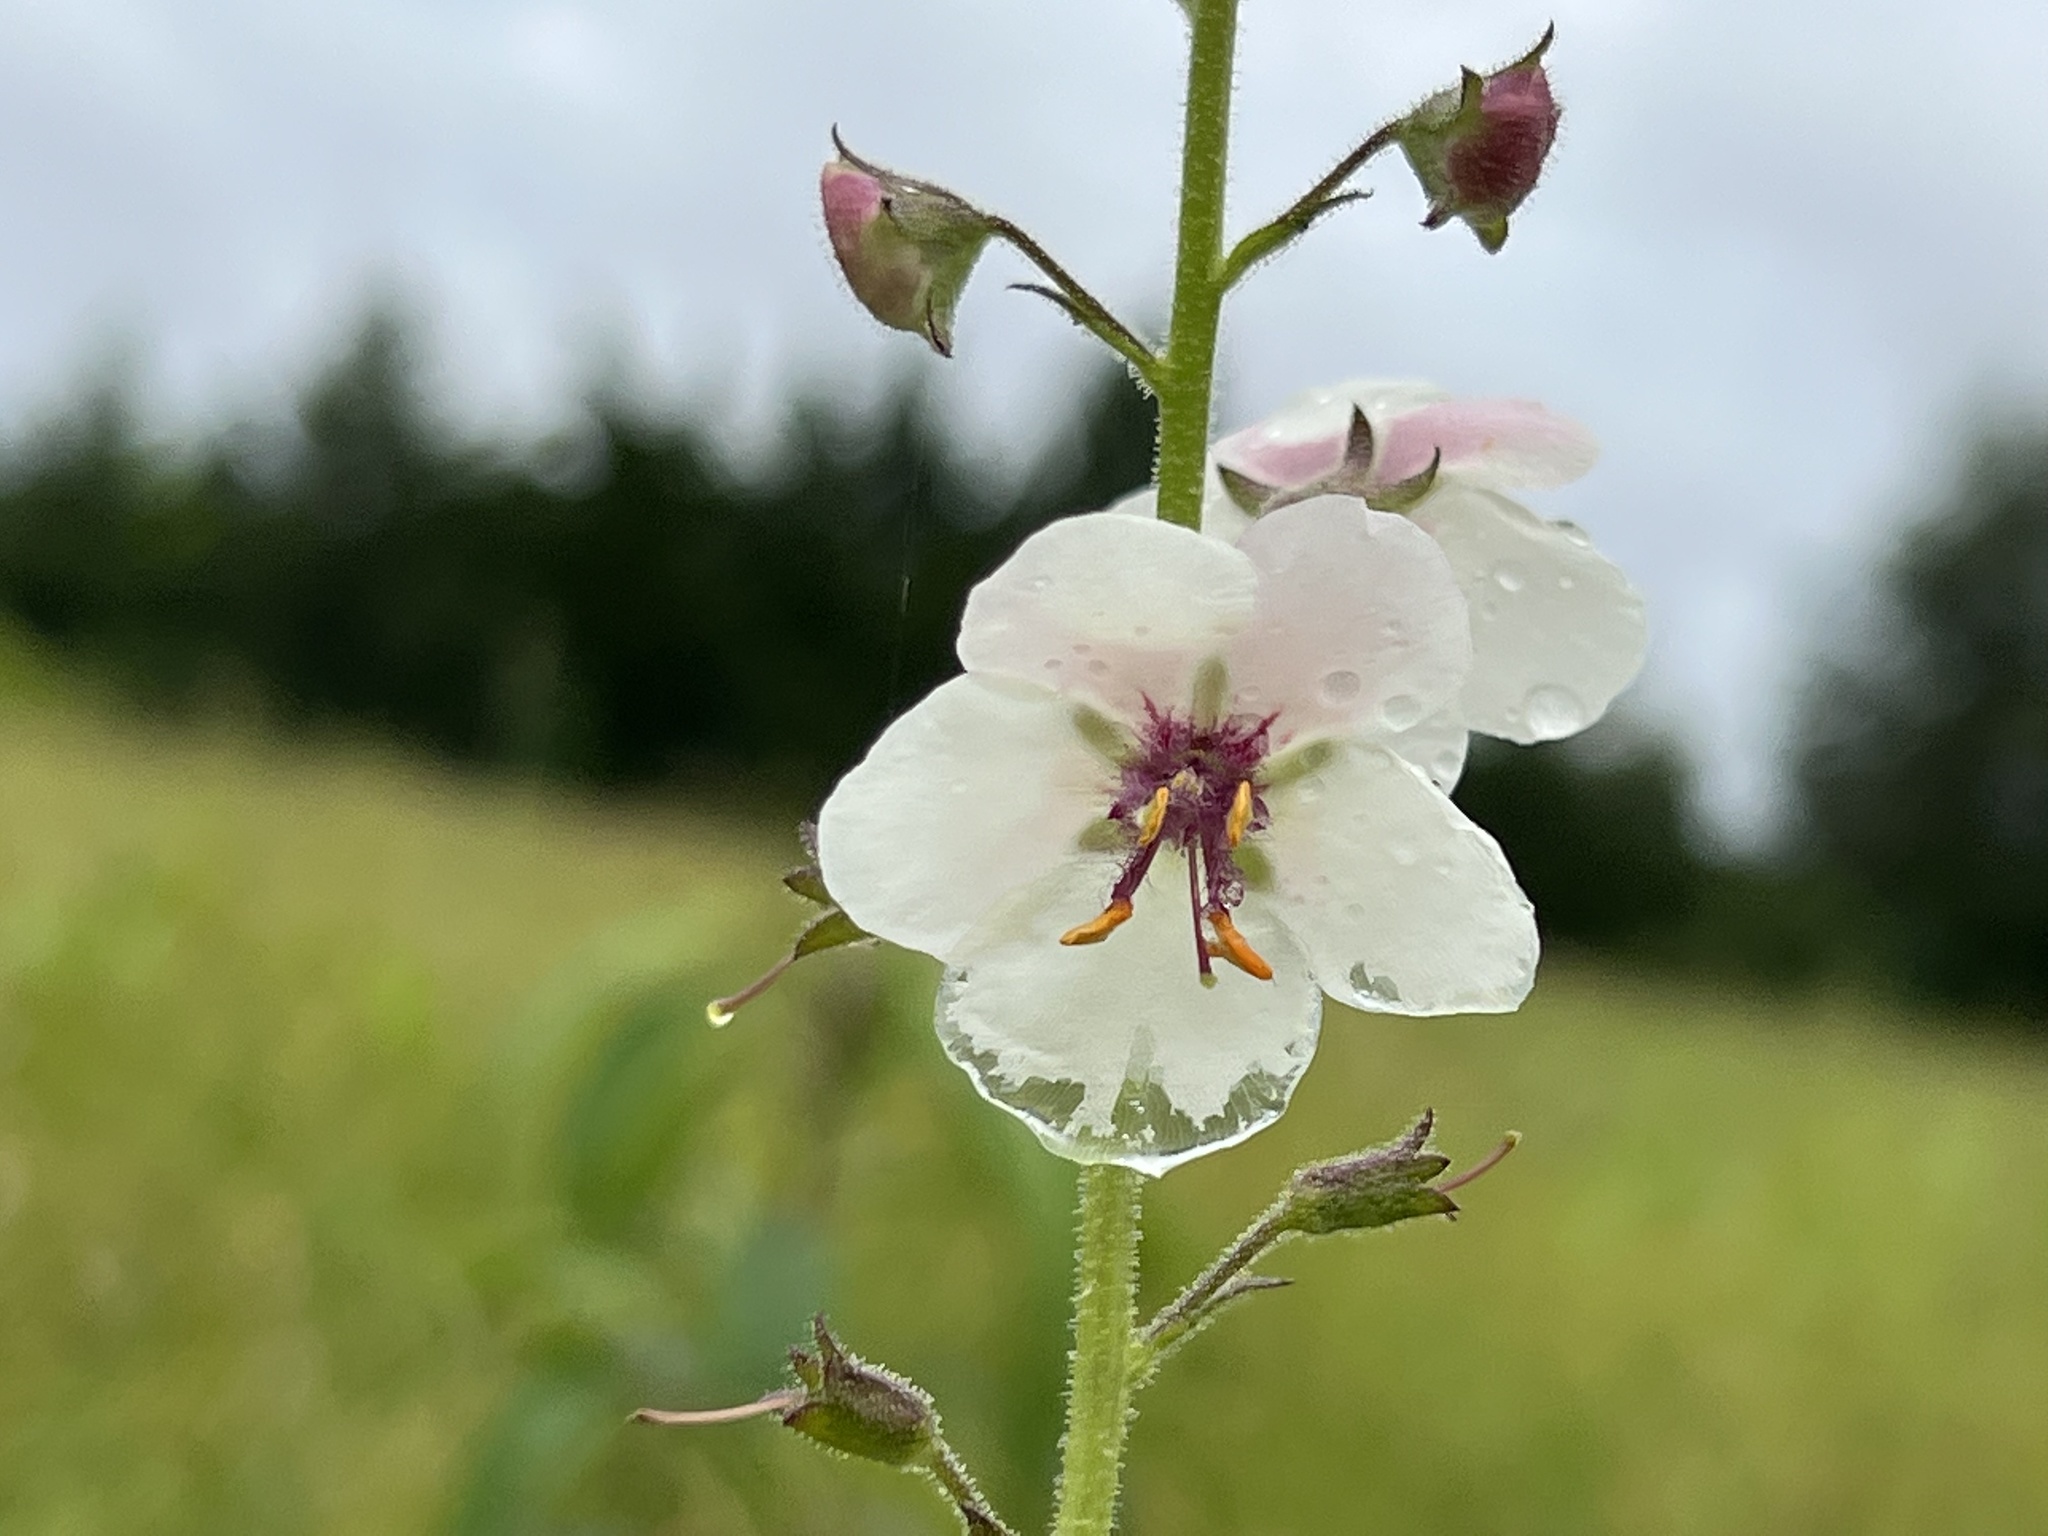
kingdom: Plantae
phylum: Tracheophyta
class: Magnoliopsida
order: Lamiales
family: Scrophulariaceae
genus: Verbascum
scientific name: Verbascum blattaria
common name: Moth mullein
